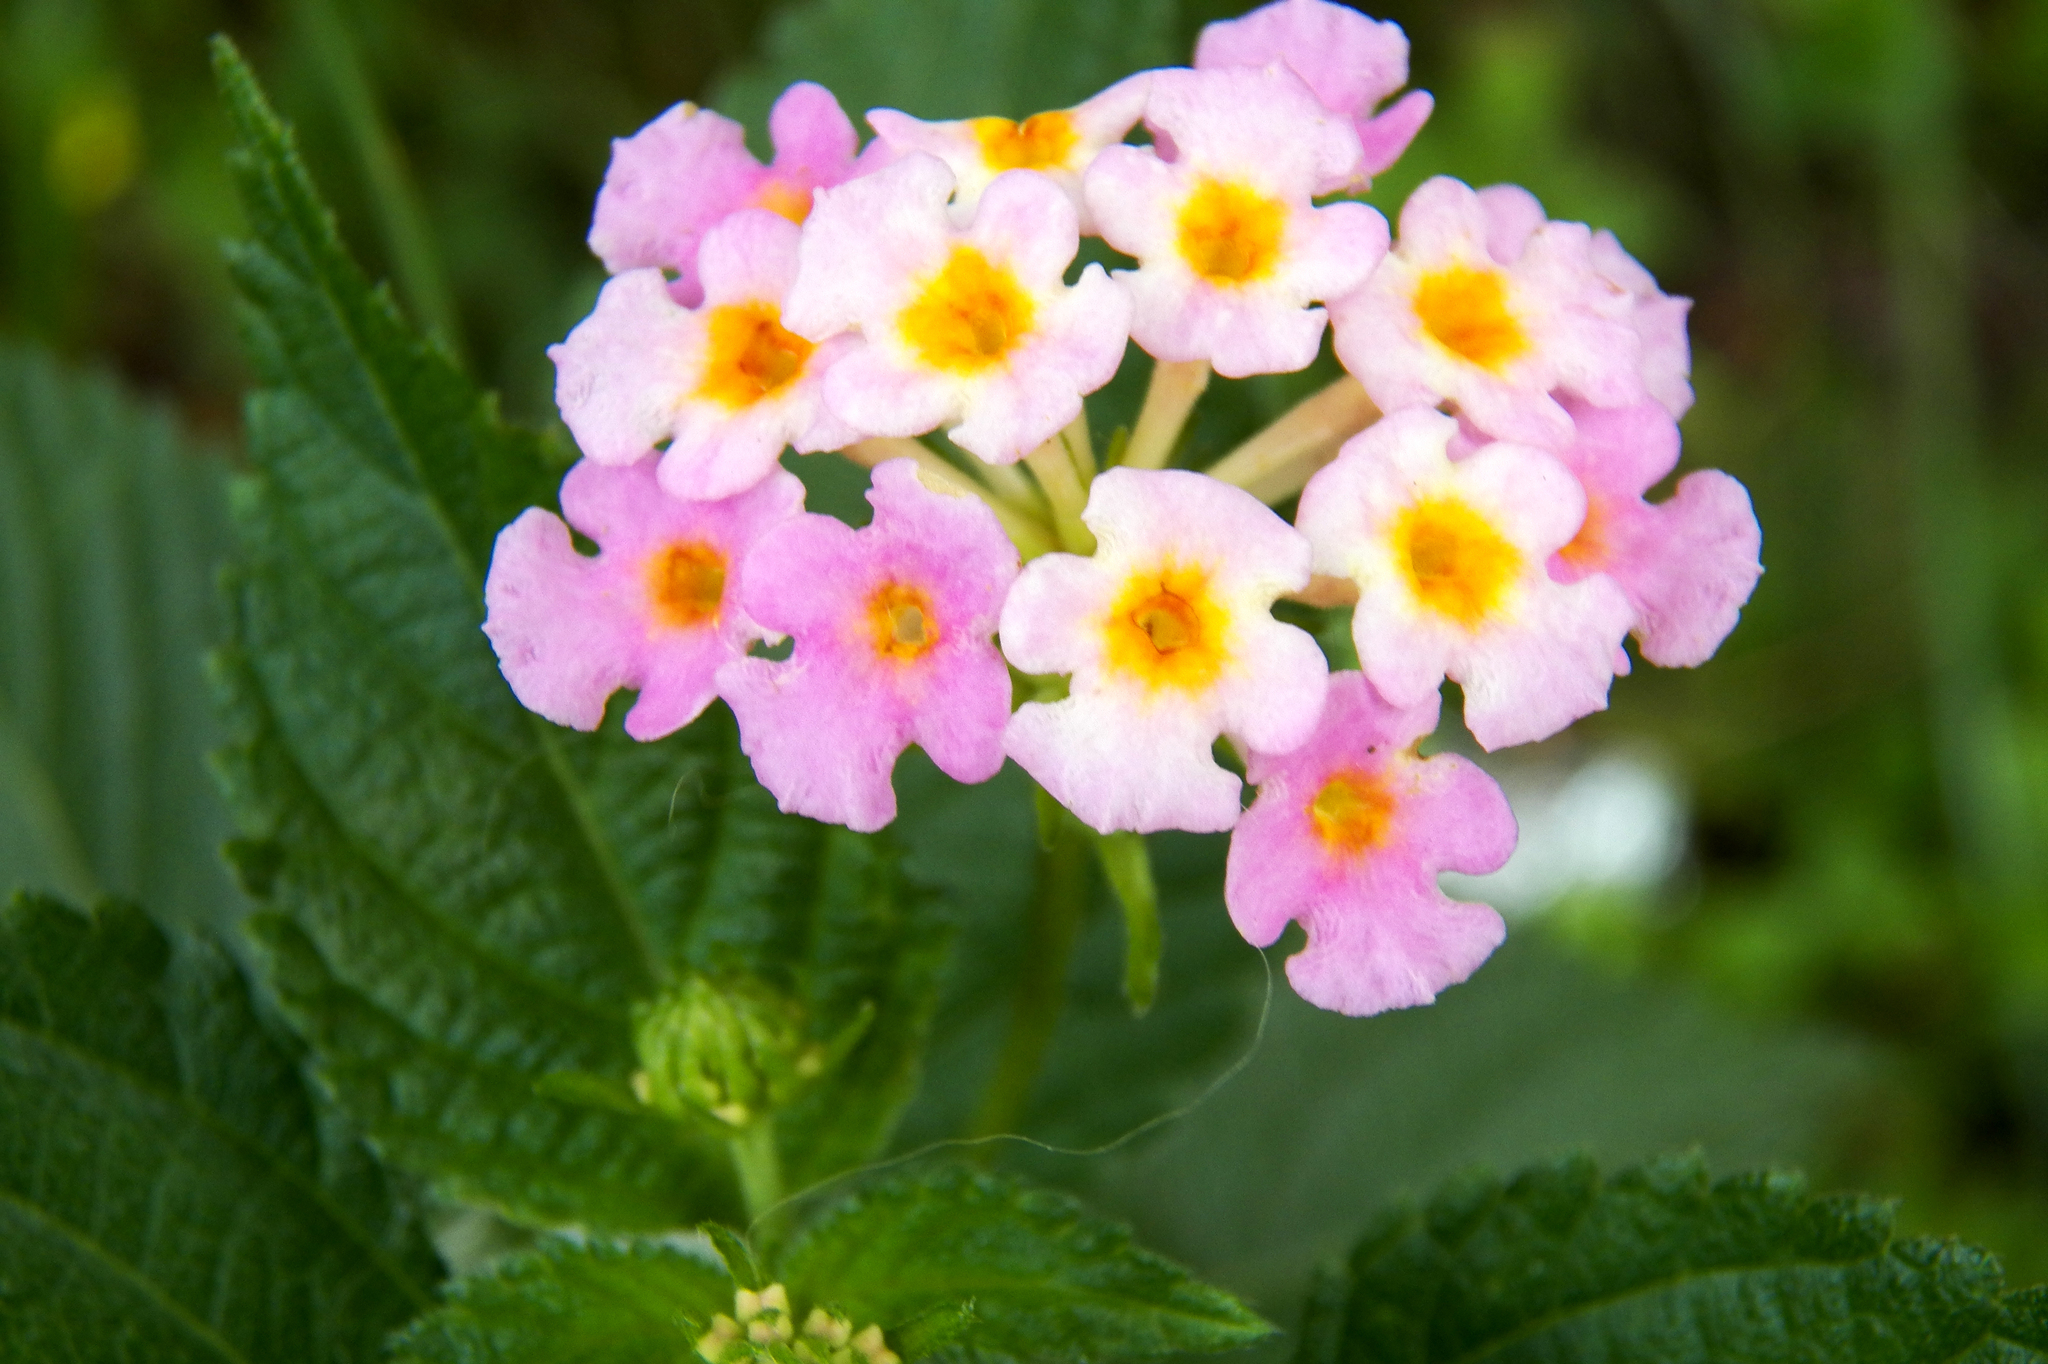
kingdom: Plantae
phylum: Tracheophyta
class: Magnoliopsida
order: Lamiales
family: Verbenaceae
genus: Lantana
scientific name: Lantana strigocamara
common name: Lantana
